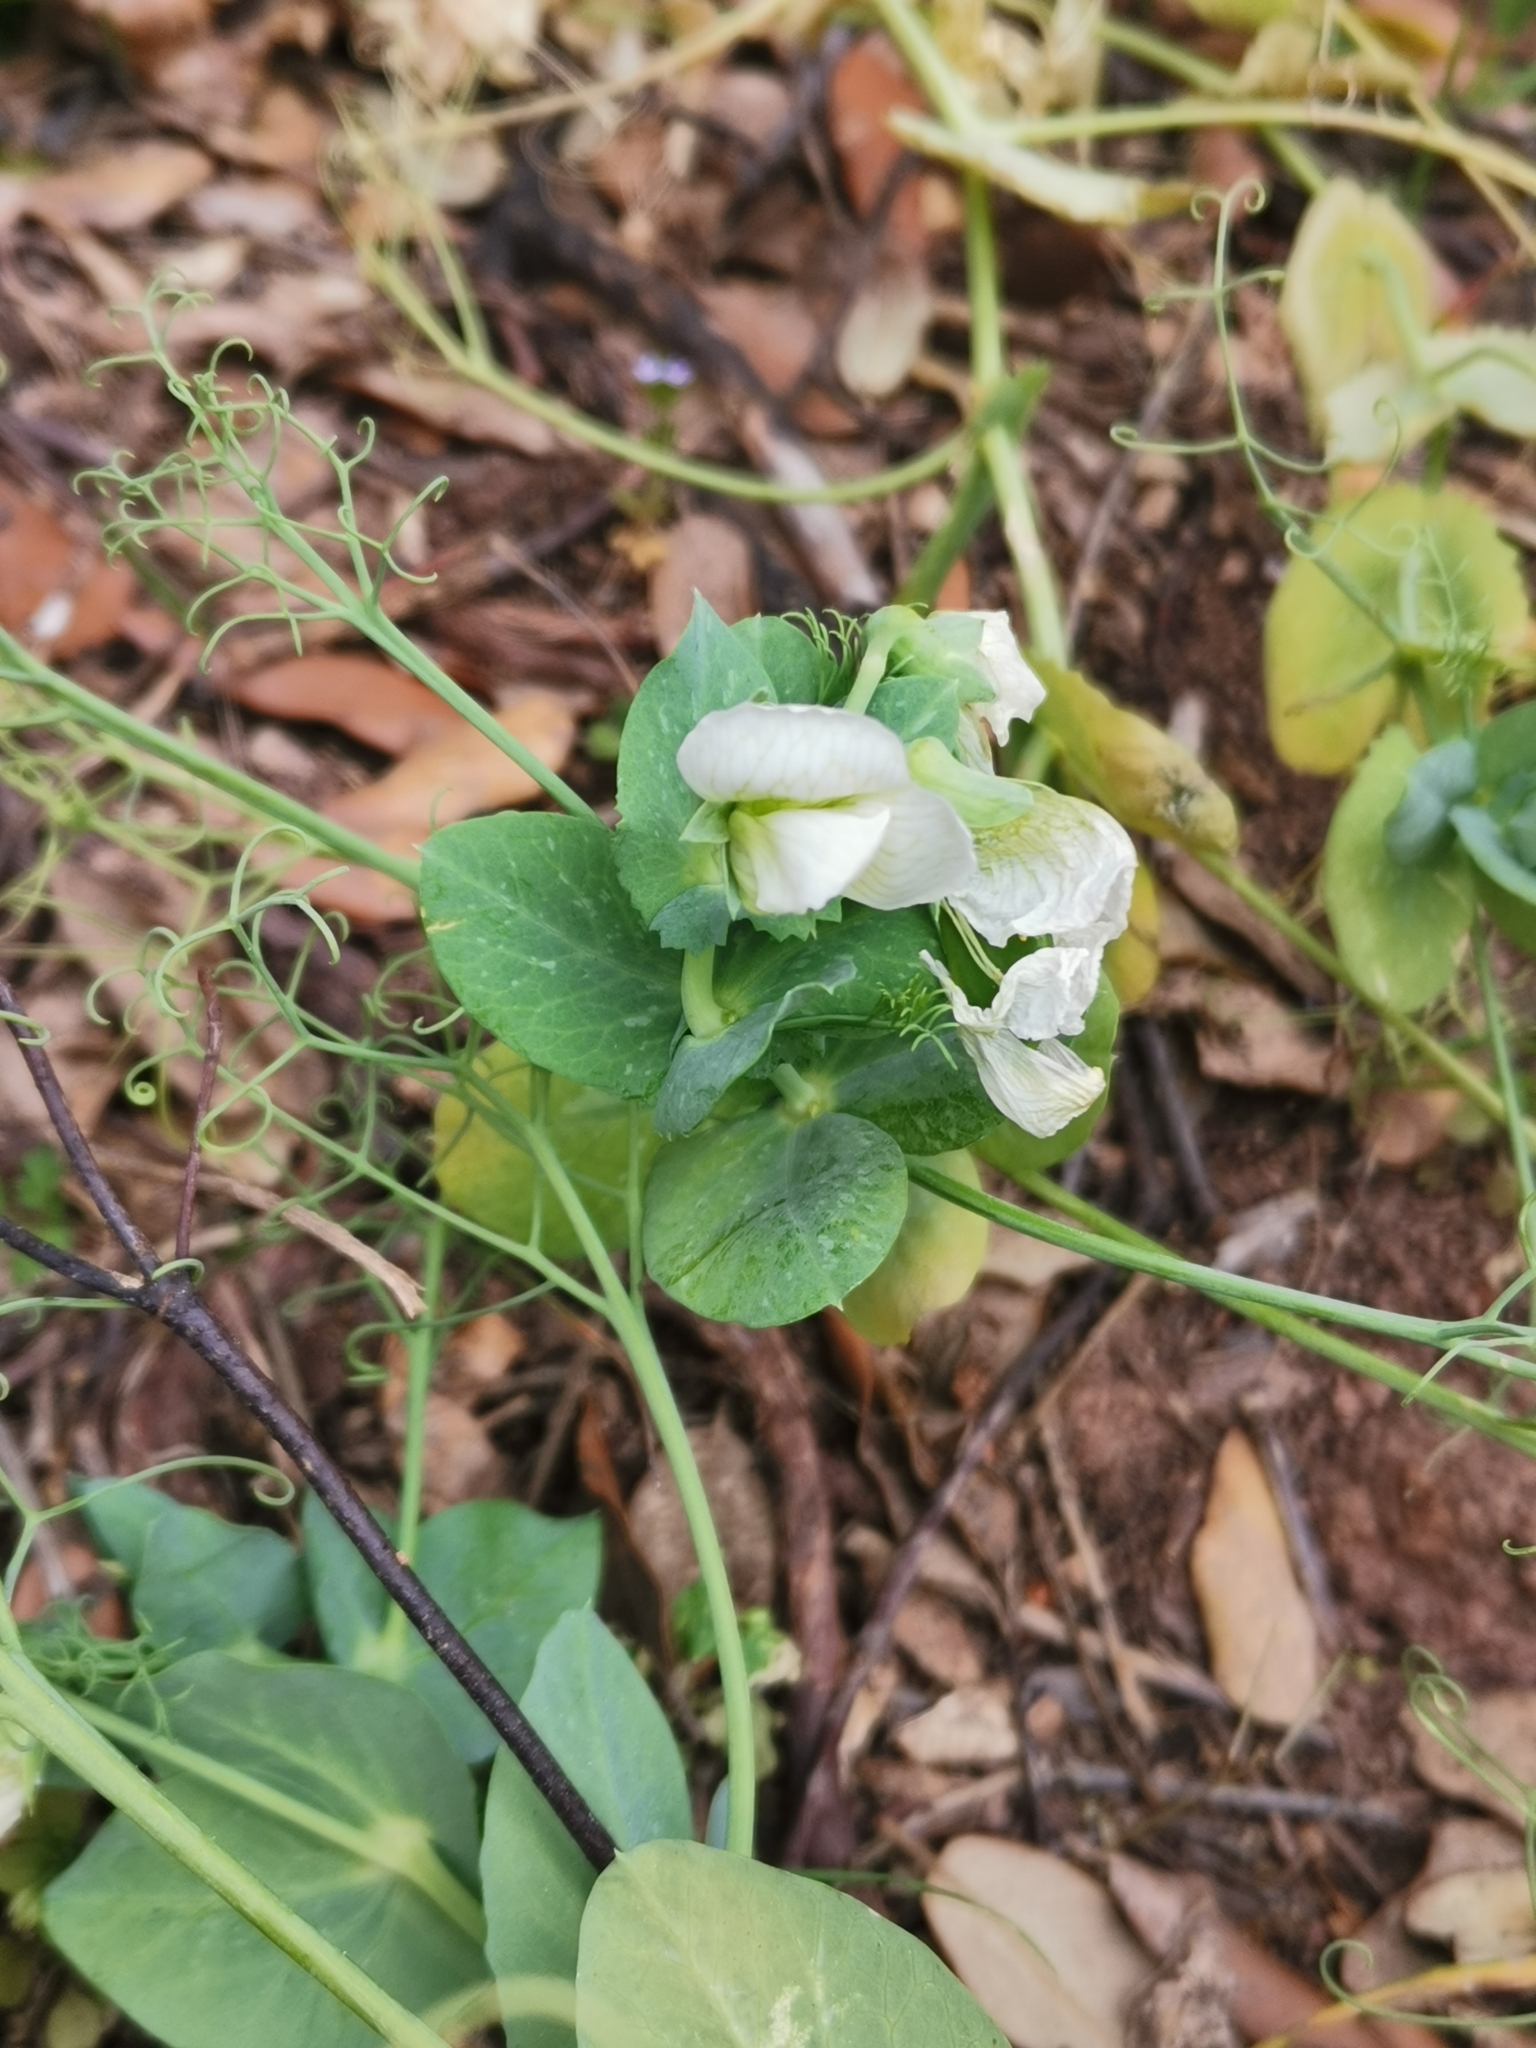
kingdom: Plantae
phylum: Tracheophyta
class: Magnoliopsida
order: Fabales
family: Fabaceae
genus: Lathyrus
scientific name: Lathyrus oleraceus
